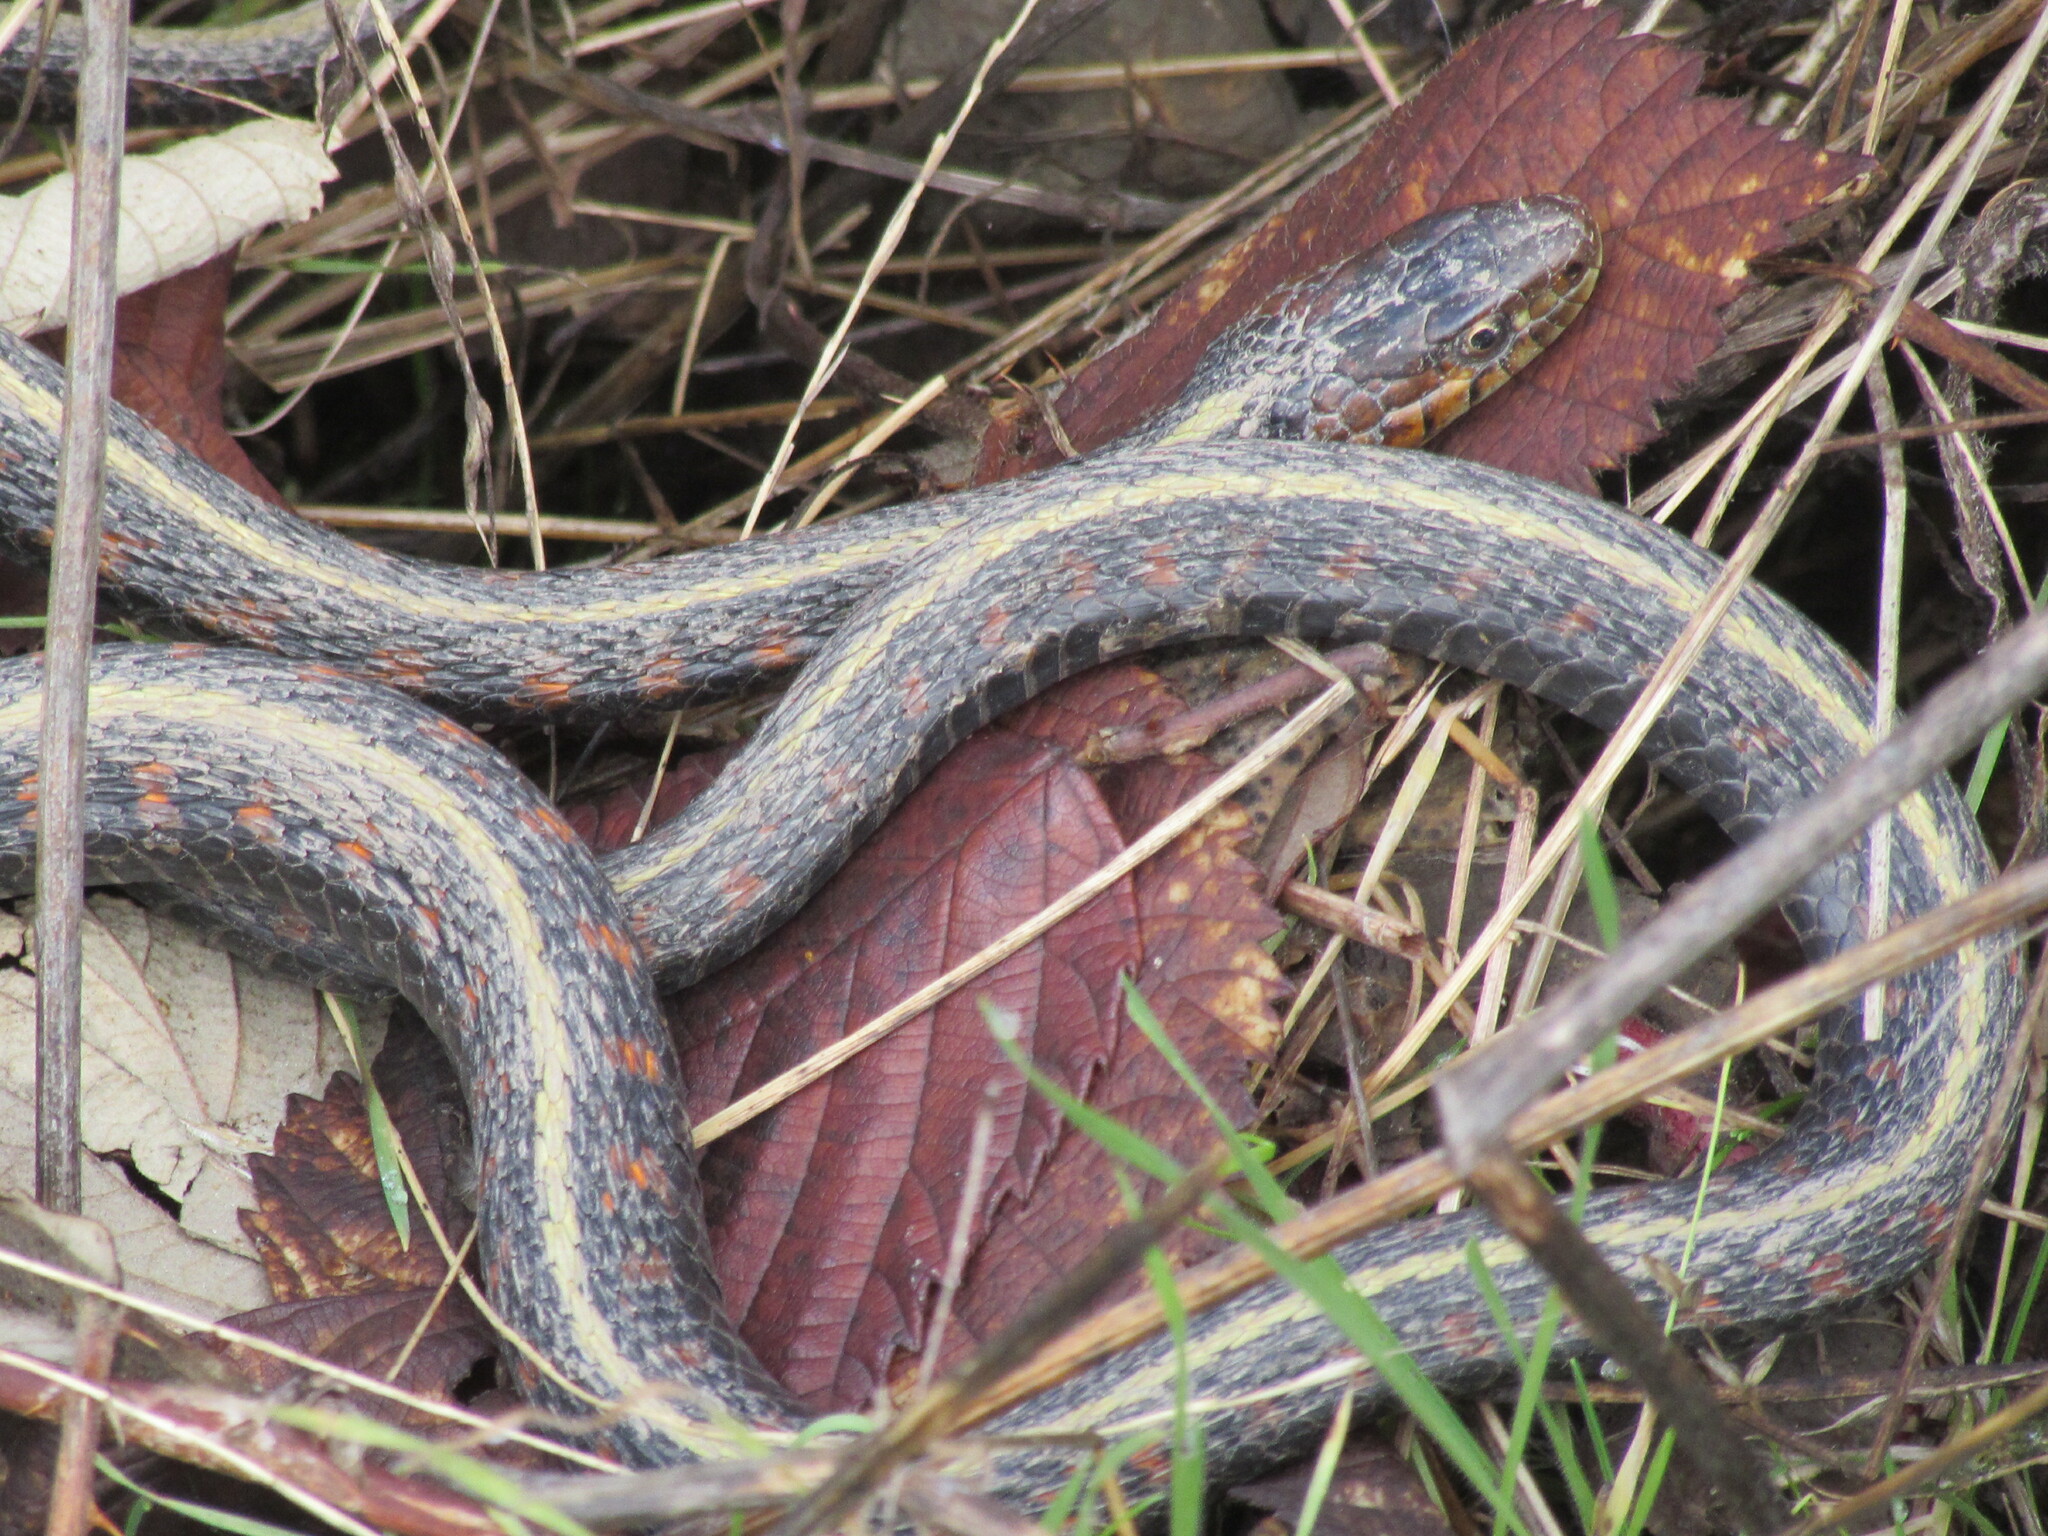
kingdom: Animalia
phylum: Chordata
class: Squamata
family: Colubridae
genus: Thamnophis
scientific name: Thamnophis sirtalis
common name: Common garter snake
